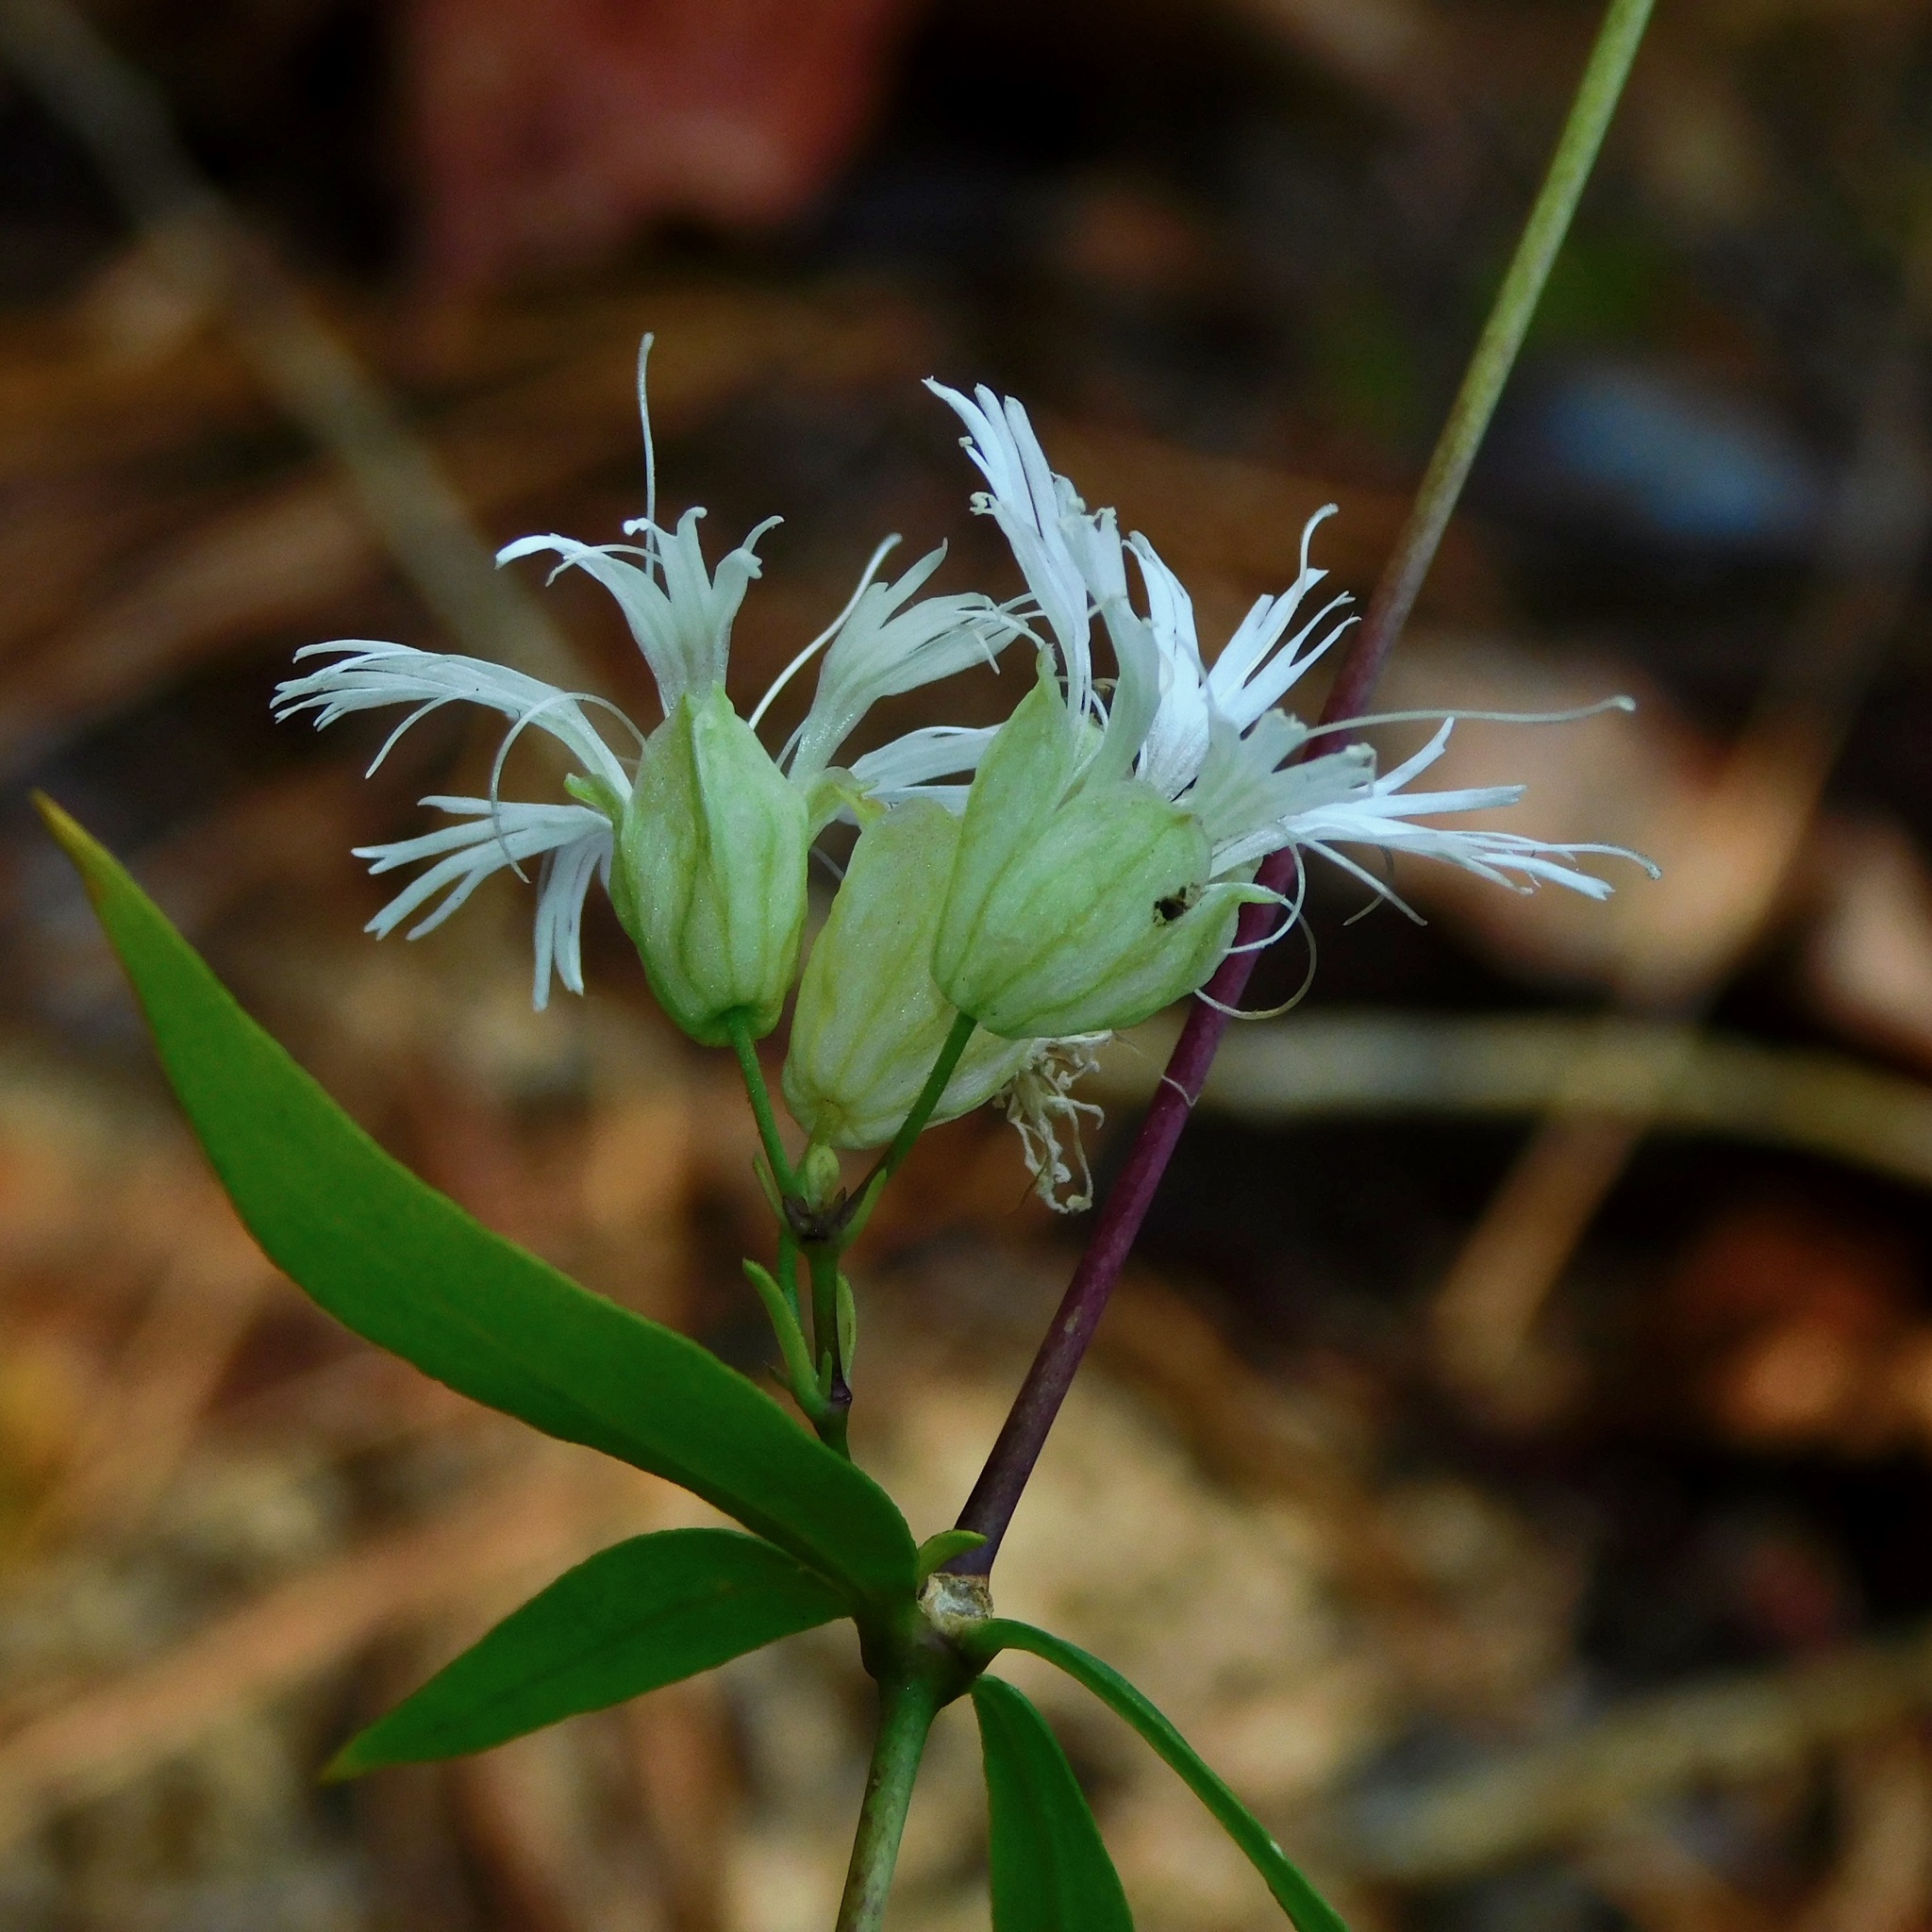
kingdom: Plantae
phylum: Tracheophyta
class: Magnoliopsida
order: Caryophyllales
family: Caryophyllaceae
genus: Silene
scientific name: Silene stellata
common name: Starry campion
